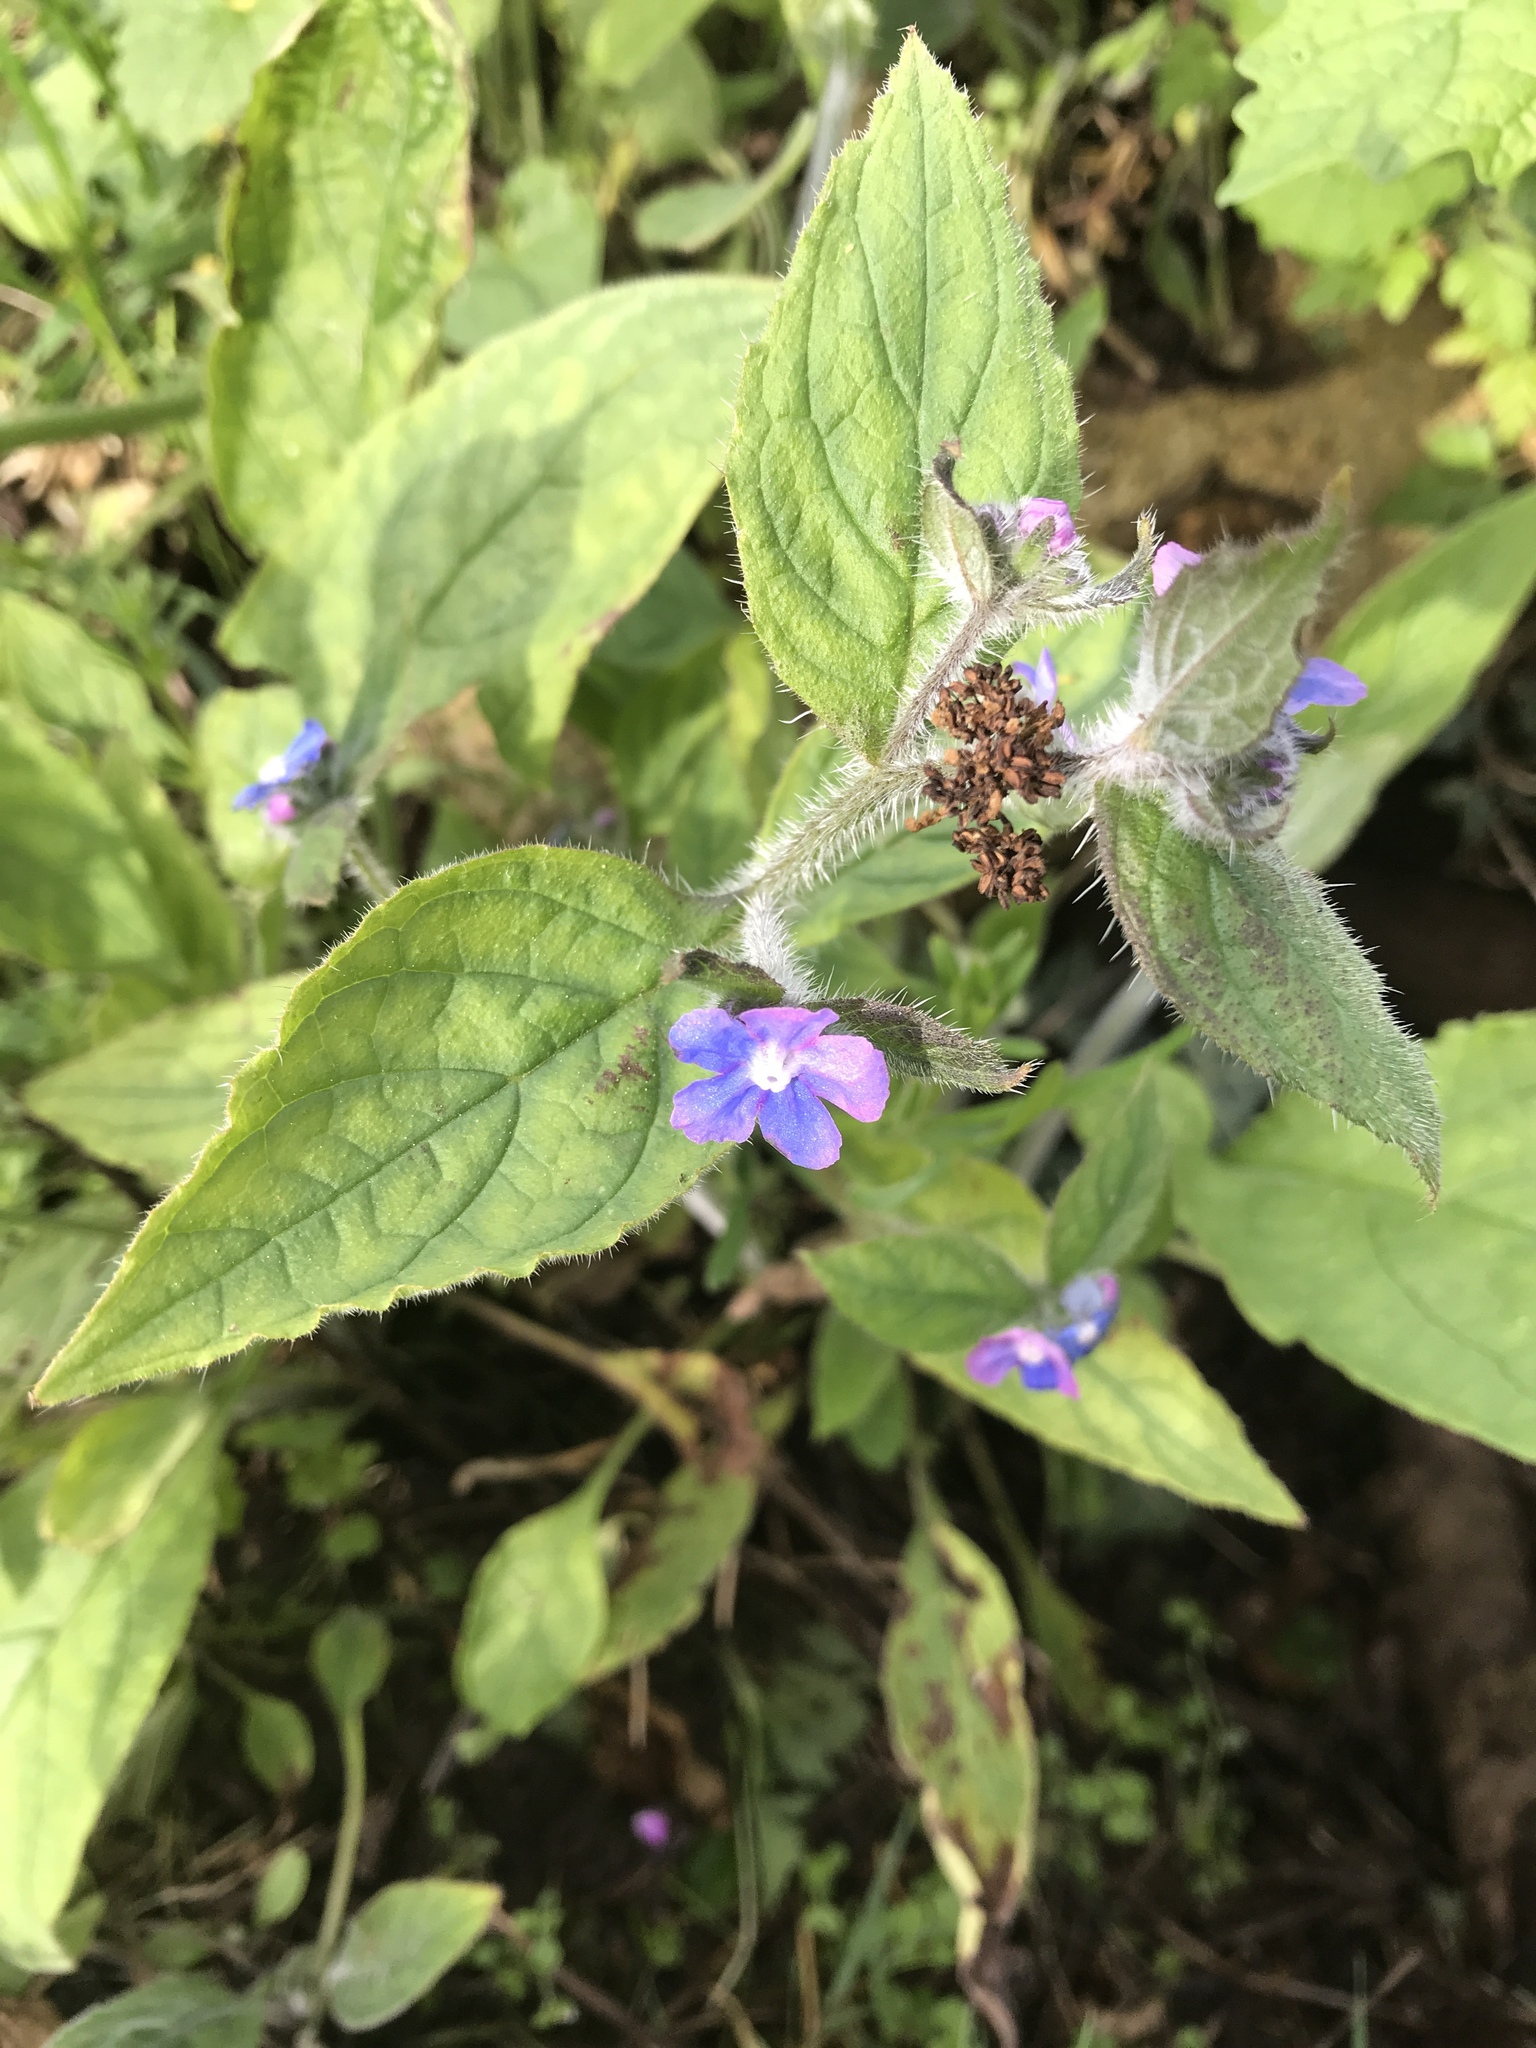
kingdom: Plantae
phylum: Tracheophyta
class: Magnoliopsida
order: Boraginales
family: Boraginaceae
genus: Pentaglottis
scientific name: Pentaglottis sempervirens
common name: Green alkanet
